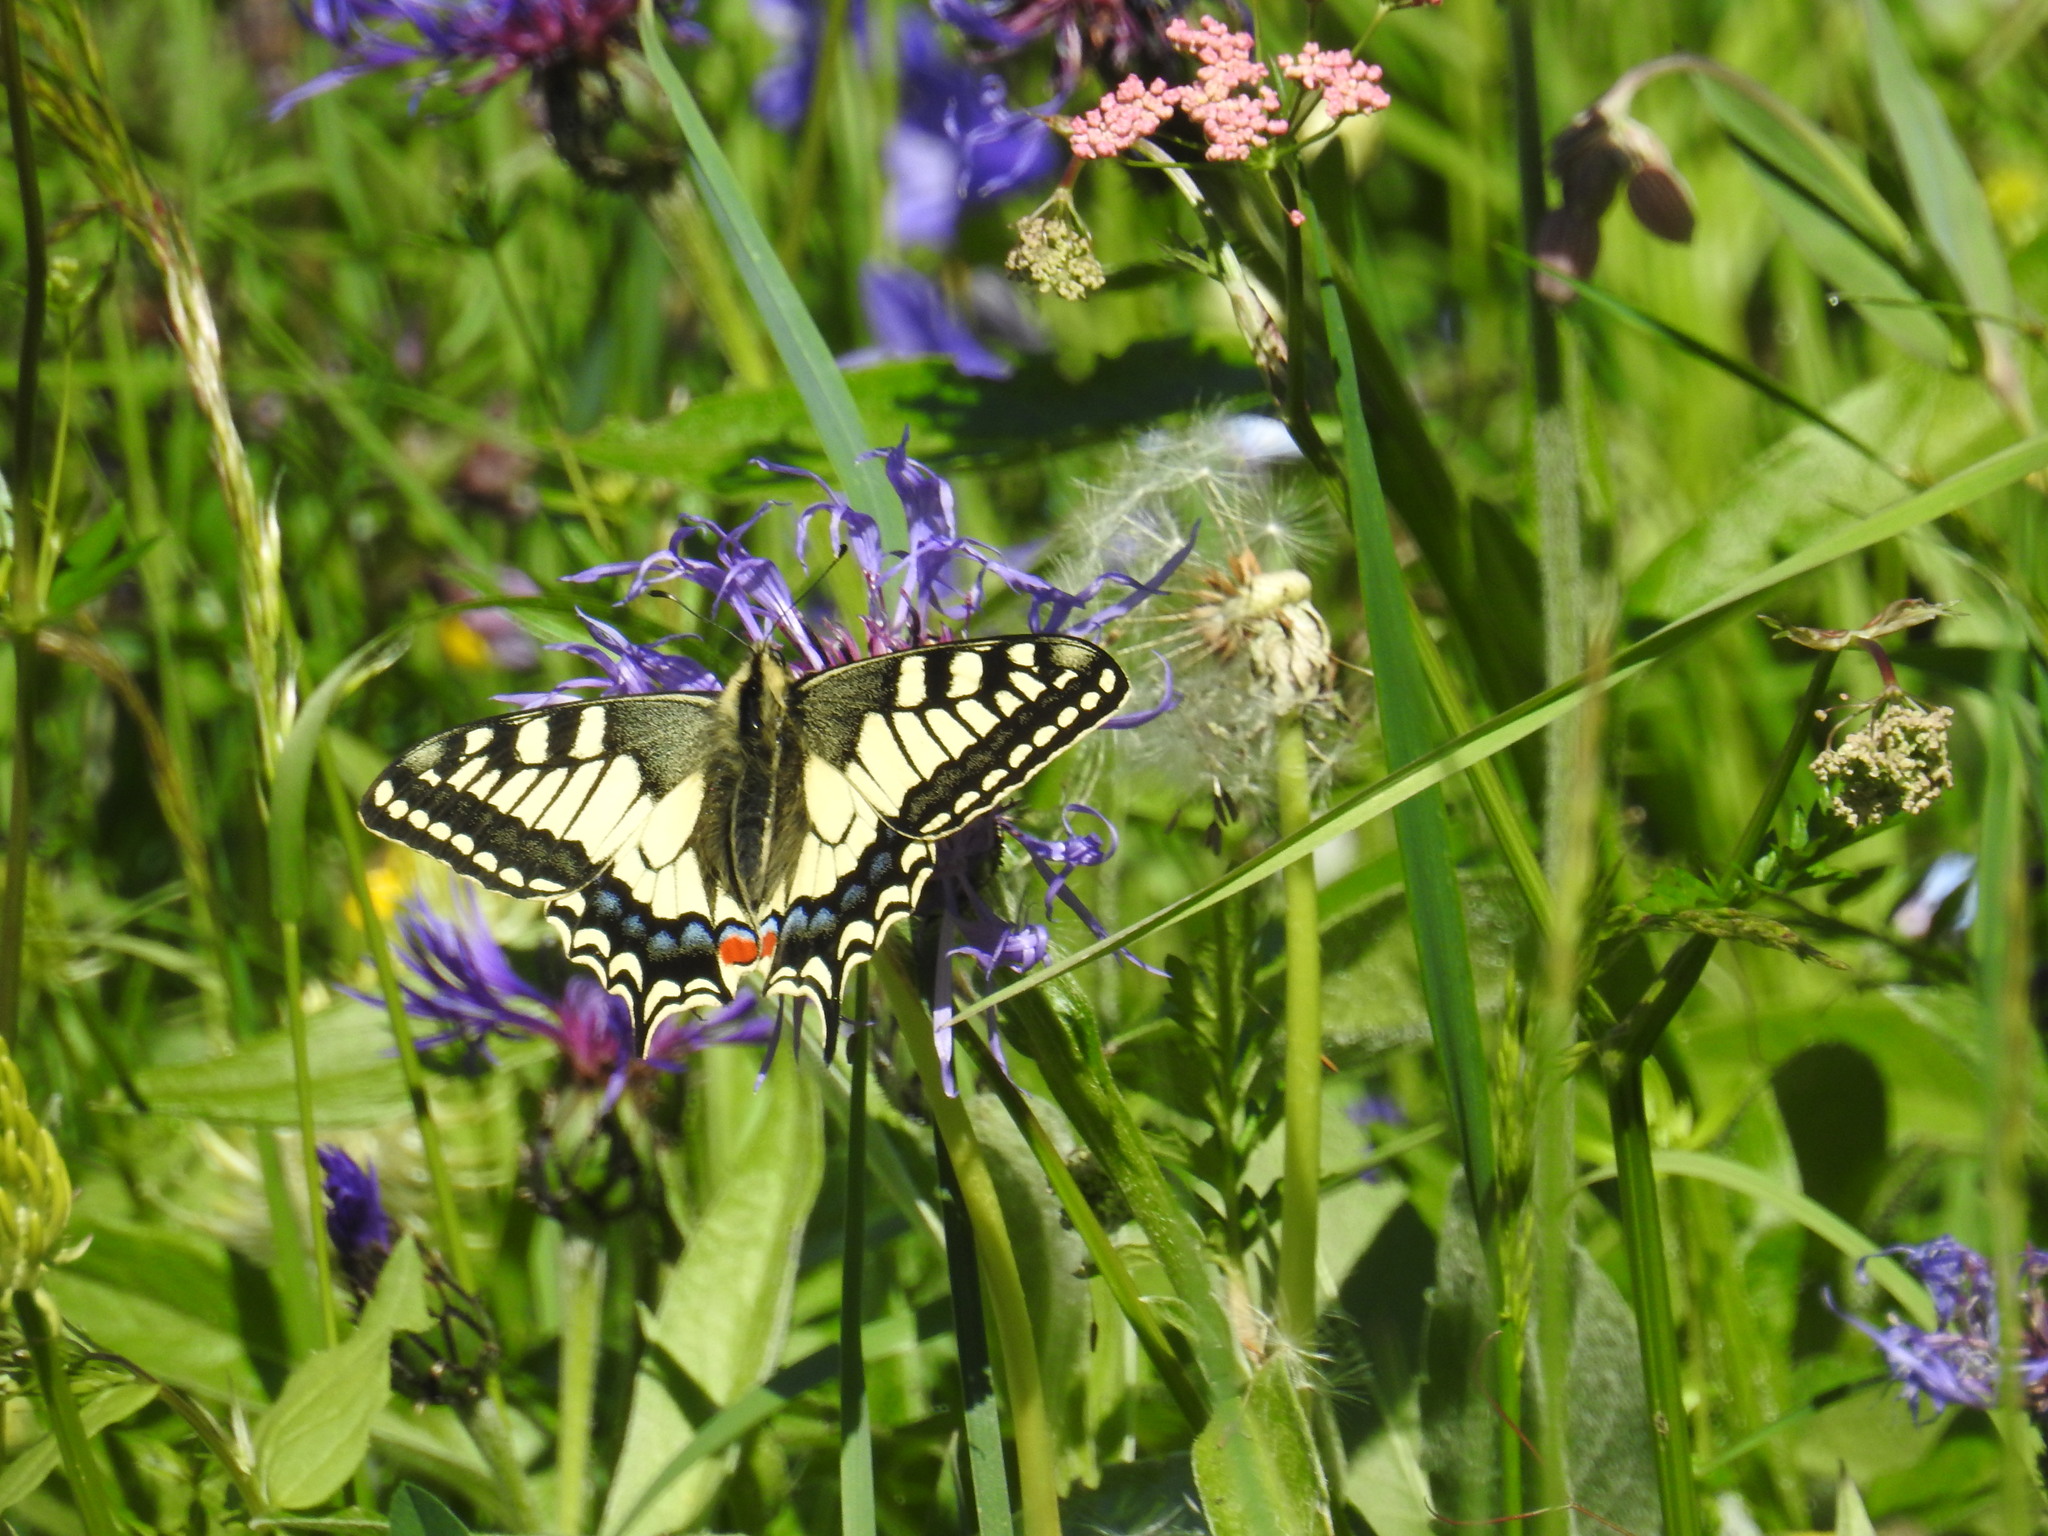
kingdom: Animalia
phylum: Arthropoda
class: Insecta
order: Lepidoptera
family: Papilionidae
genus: Papilio
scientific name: Papilio machaon
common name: Swallowtail
